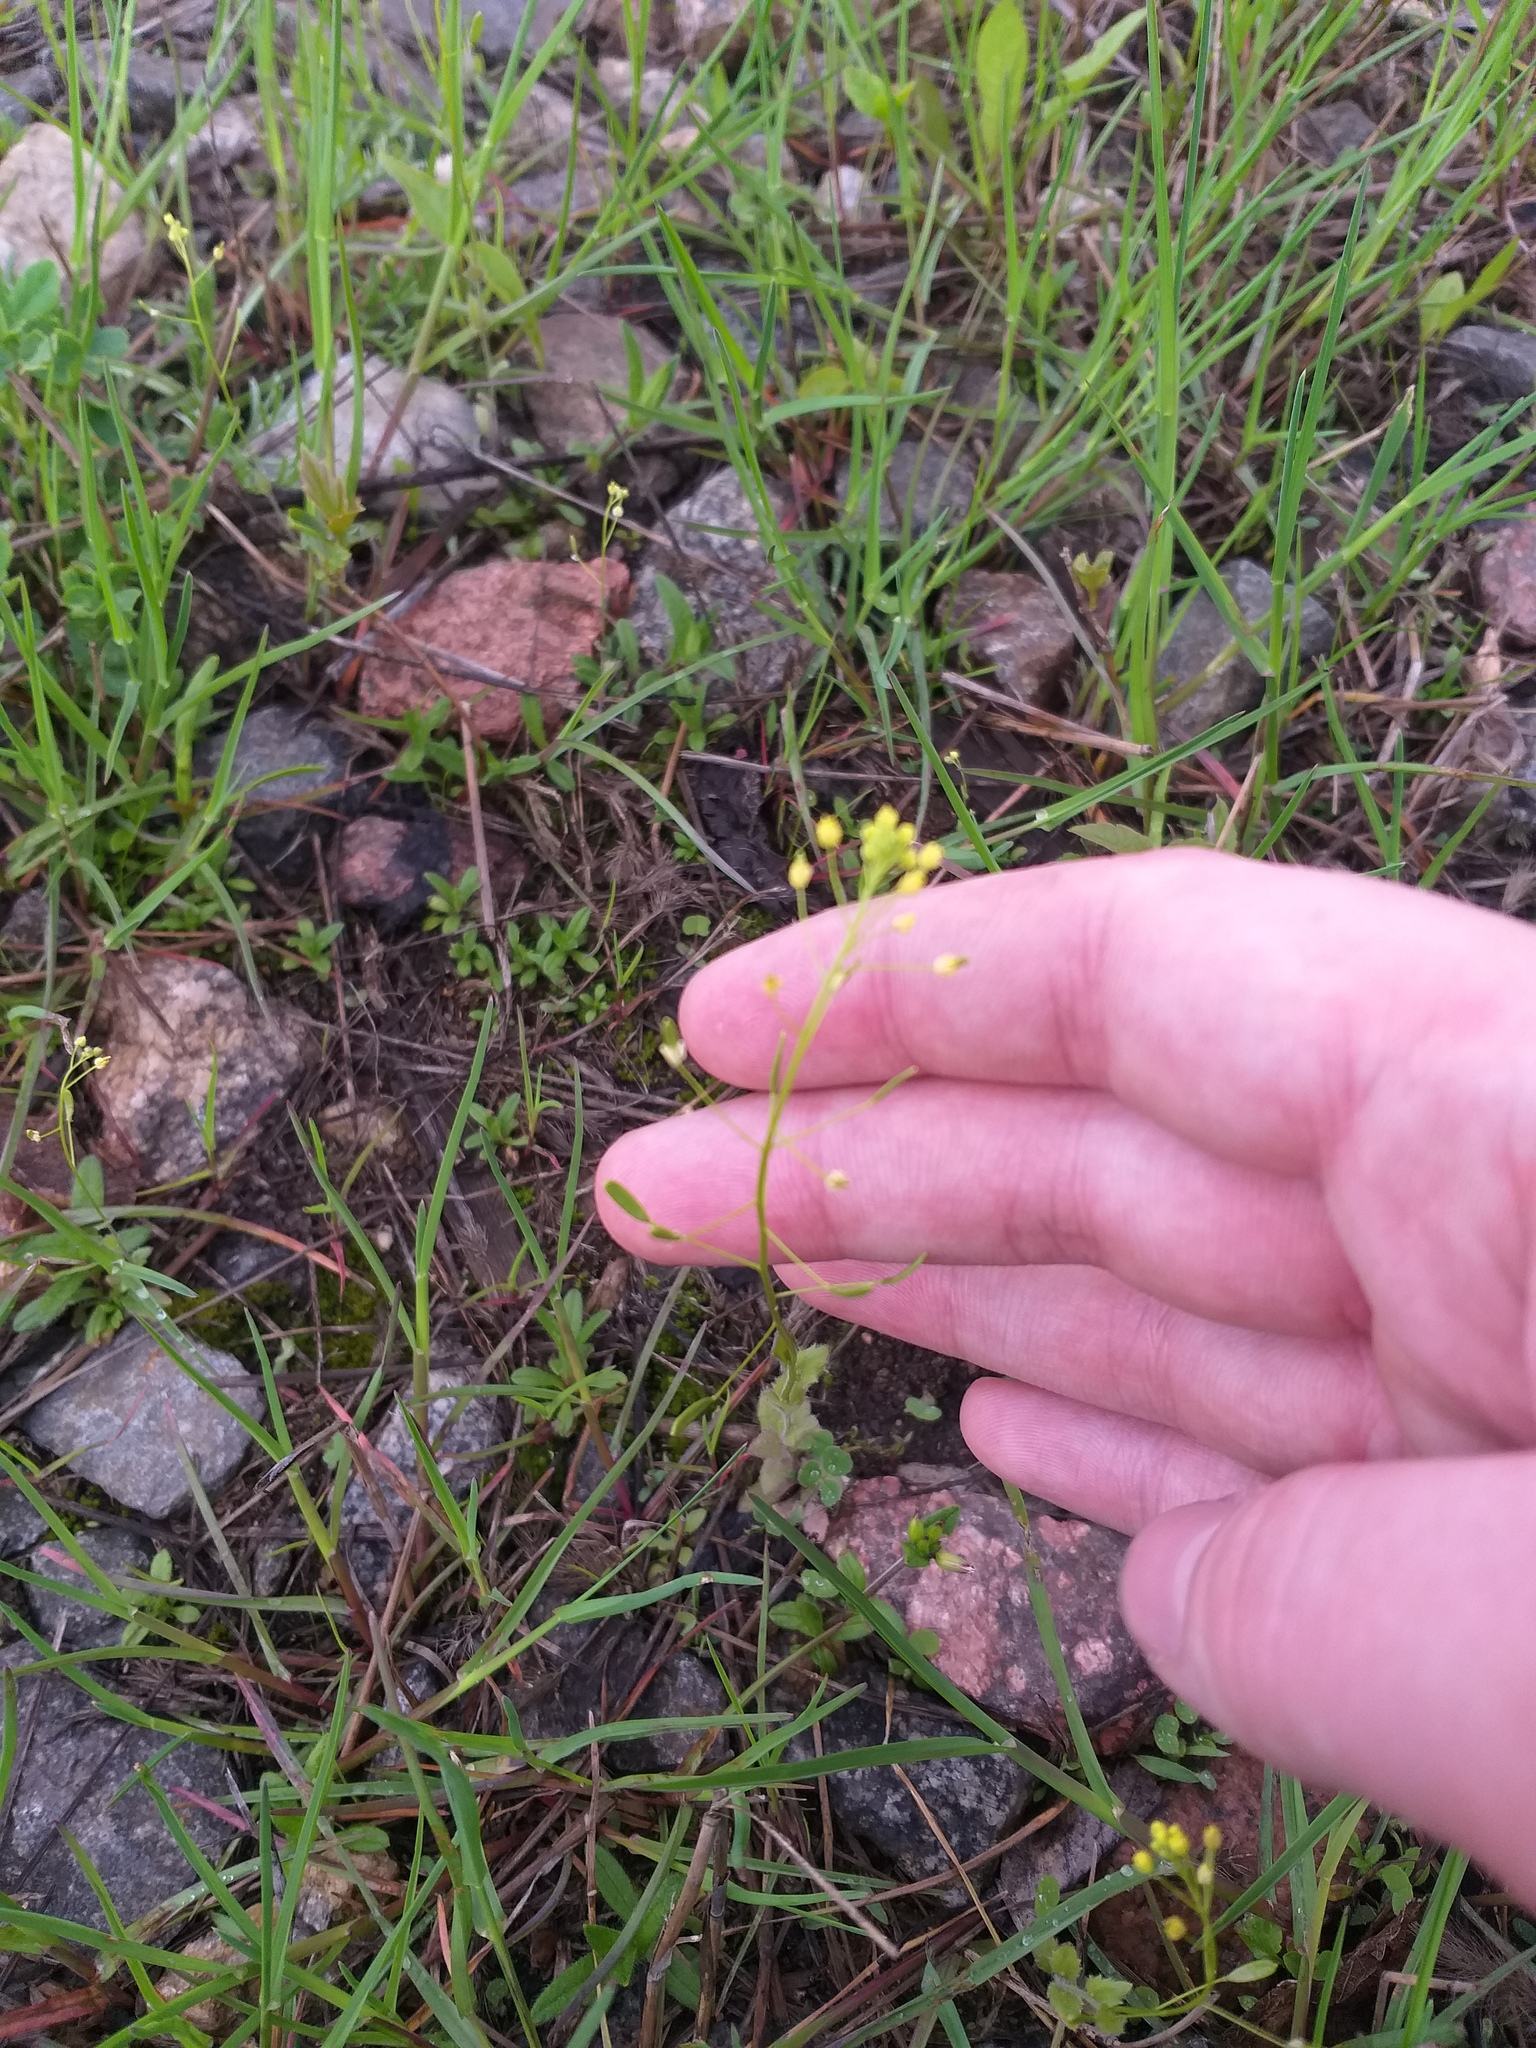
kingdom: Plantae
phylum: Tracheophyta
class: Magnoliopsida
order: Brassicales
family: Brassicaceae
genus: Draba
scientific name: Draba nemorosa
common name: Wood whitlow-grass
